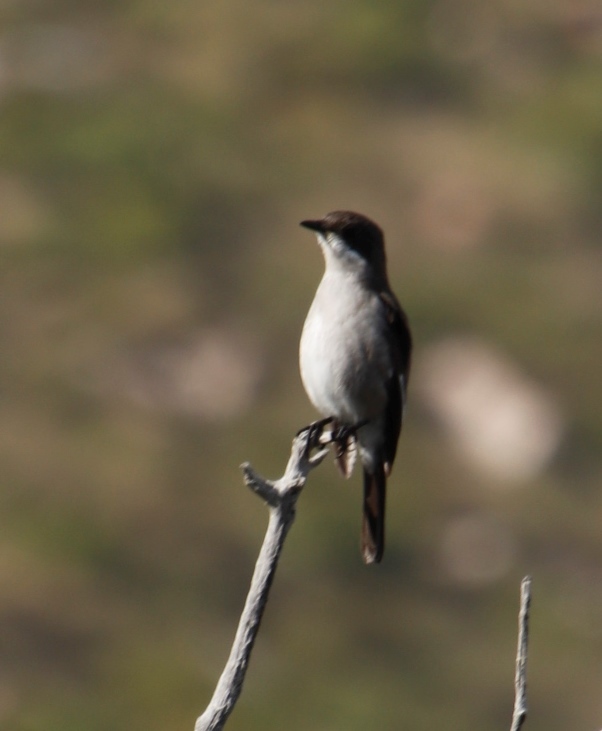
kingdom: Animalia
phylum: Chordata
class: Aves
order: Passeriformes
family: Muscicapidae
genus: Sigelus
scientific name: Sigelus silens
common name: Fiscal flycatcher
